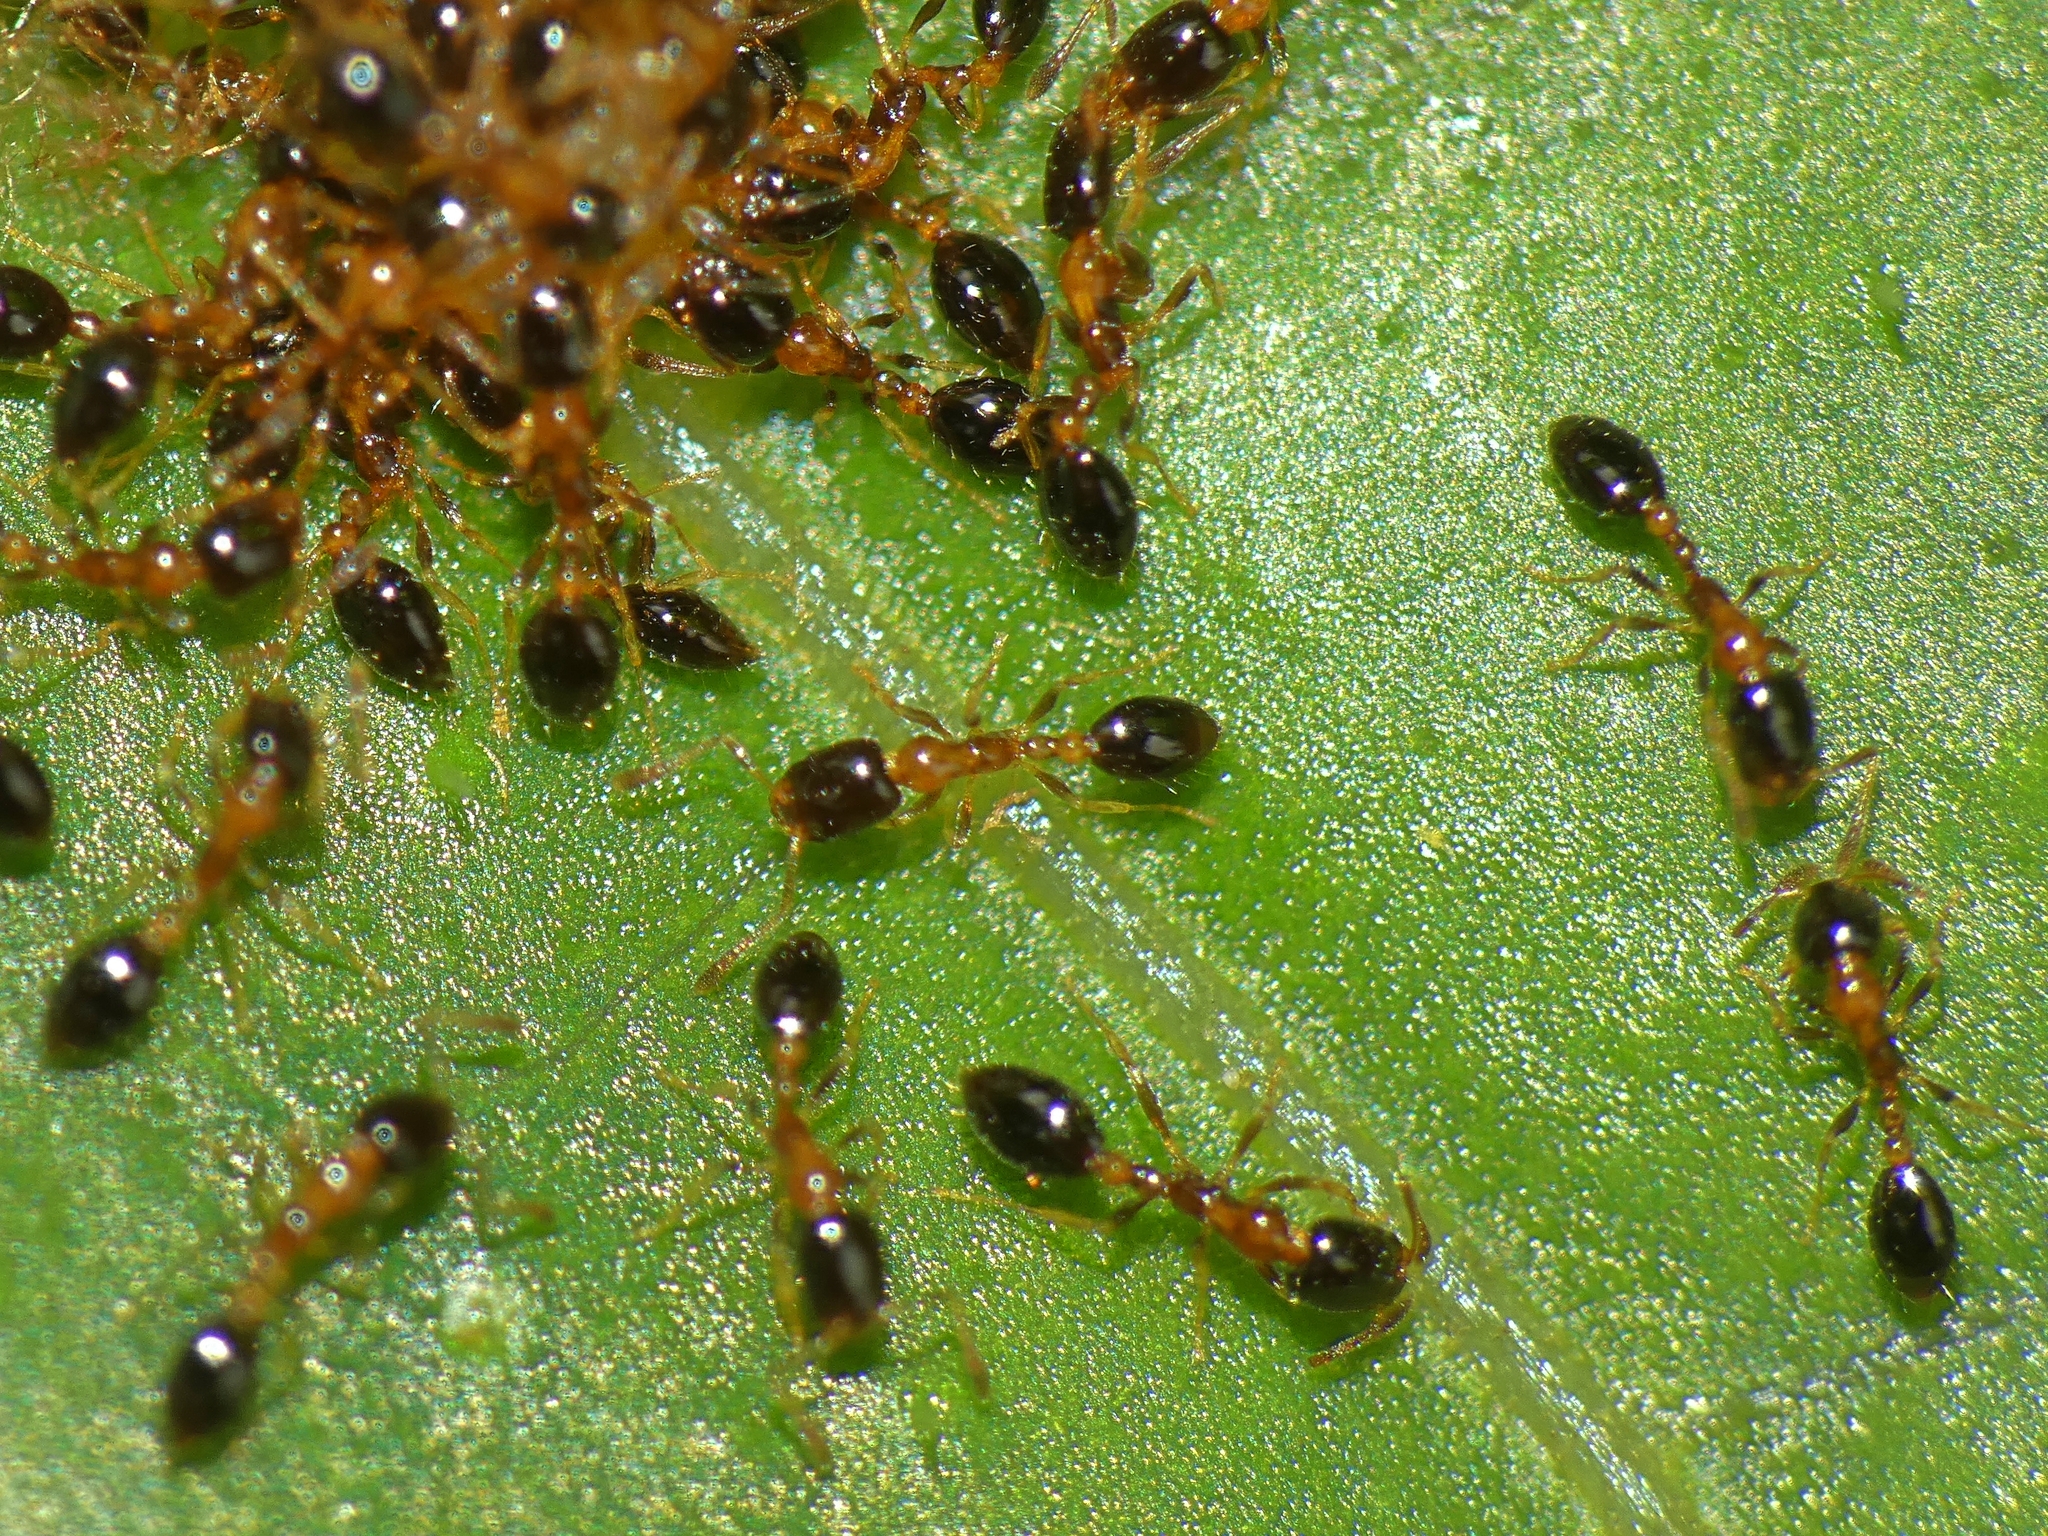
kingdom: Animalia
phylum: Arthropoda
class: Insecta
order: Hymenoptera
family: Formicidae
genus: Monomorium
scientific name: Monomorium floricola
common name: Bicolored trailing ant
